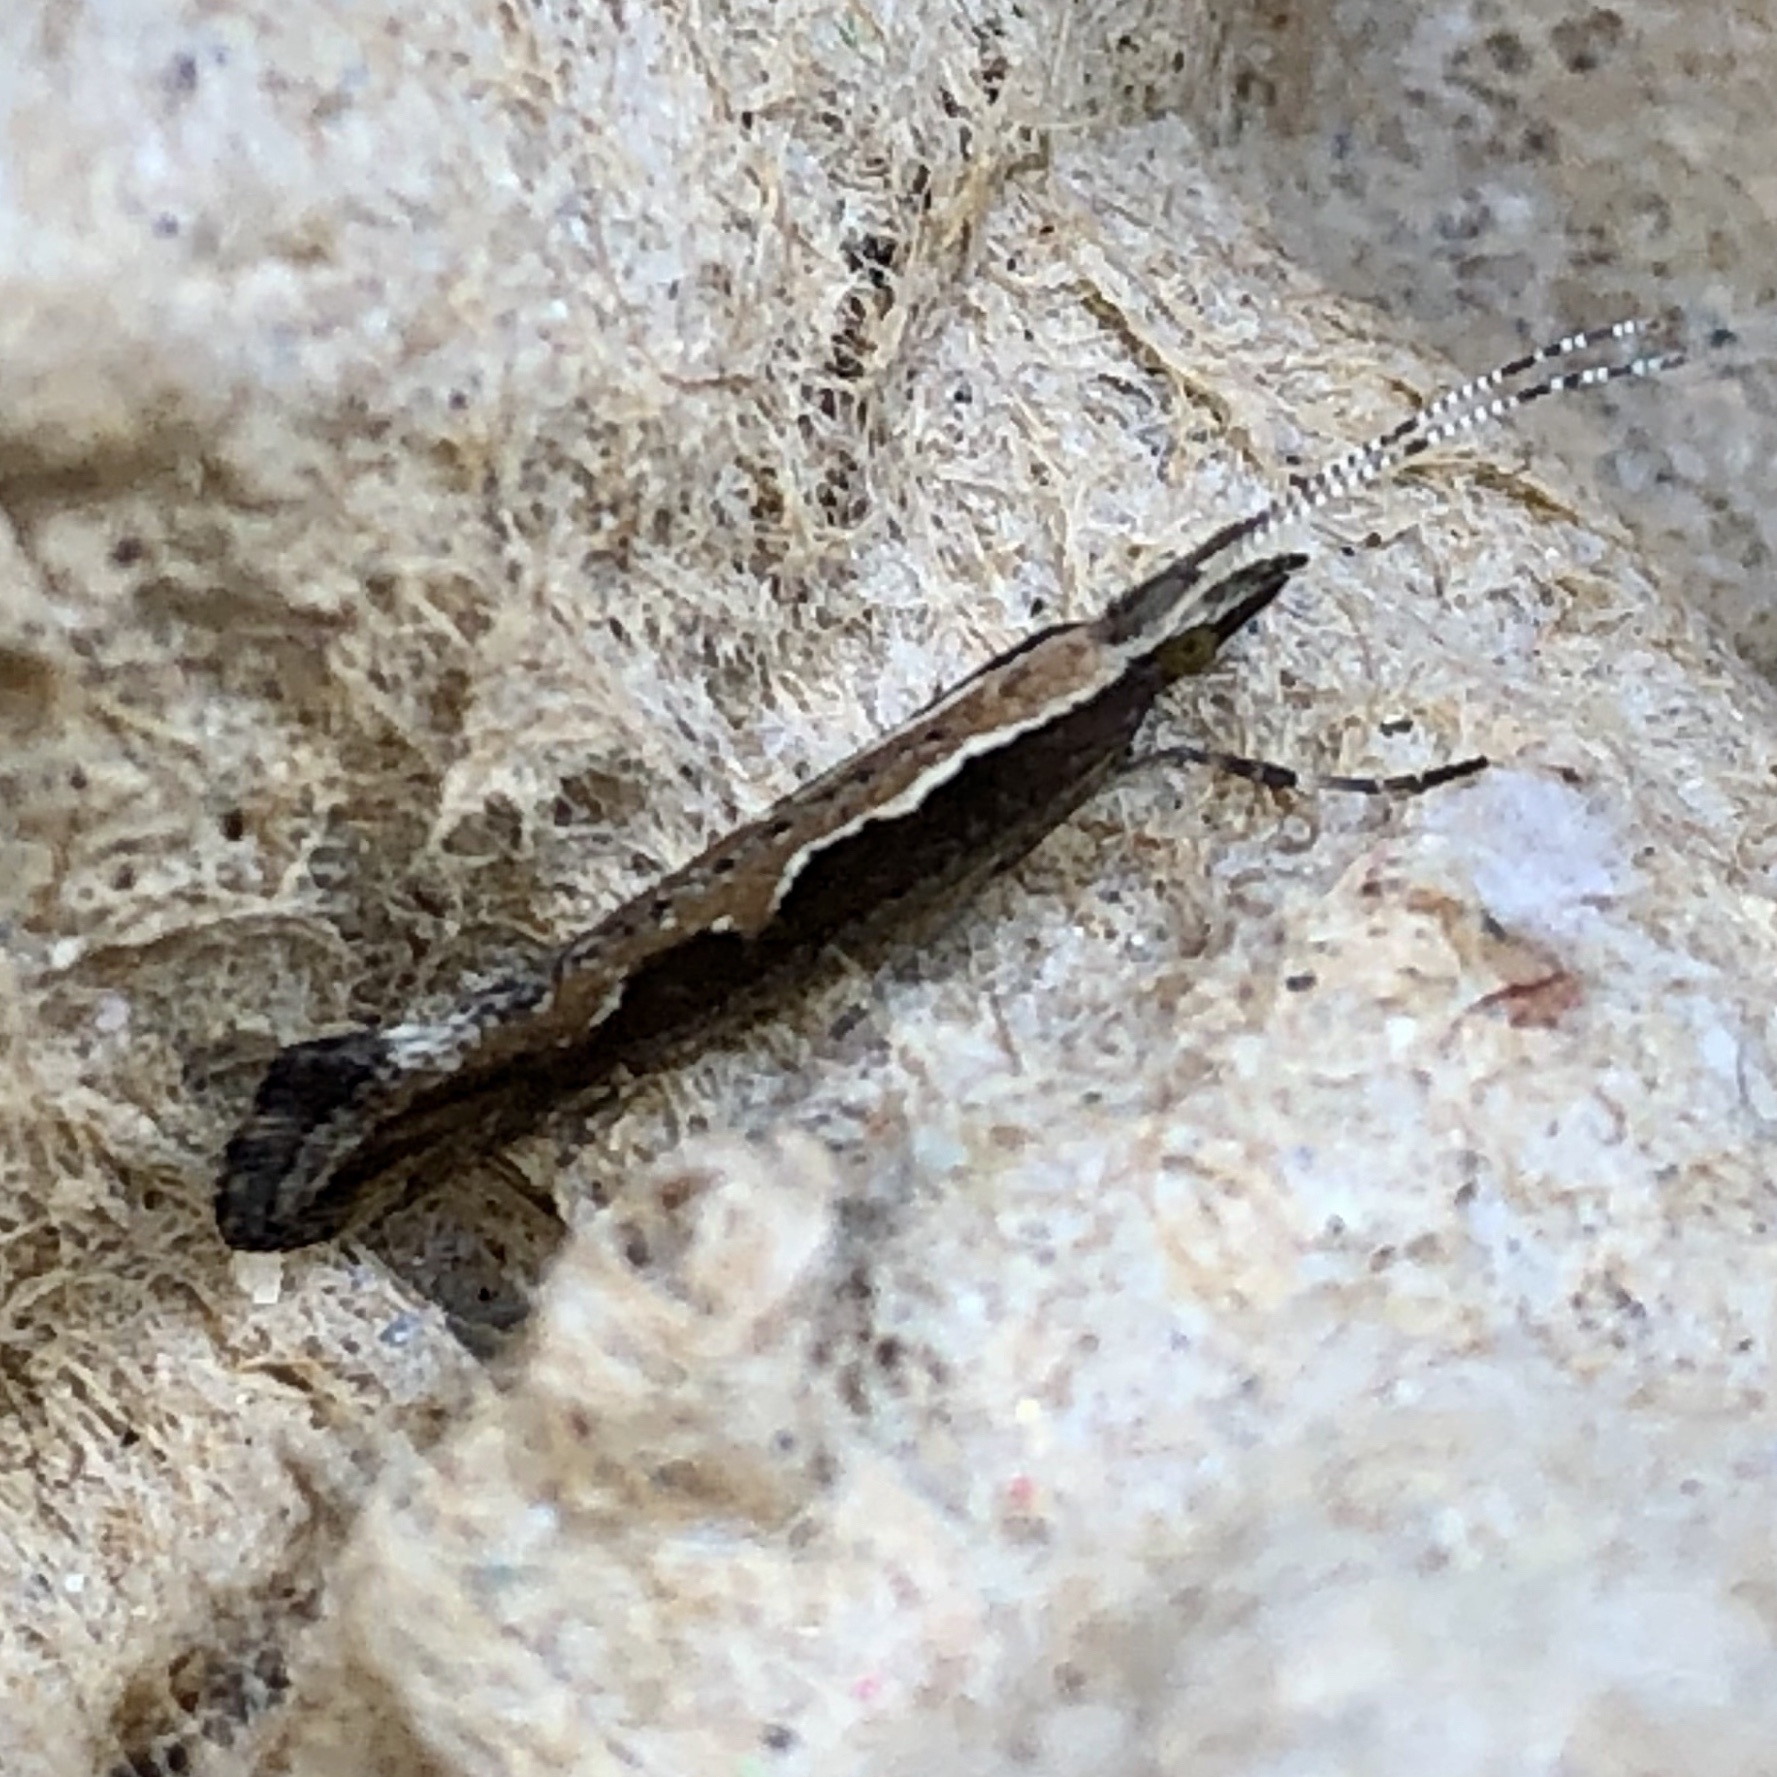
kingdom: Animalia
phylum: Arthropoda
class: Insecta
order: Lepidoptera
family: Plutellidae
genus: Plutella
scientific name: Plutella xylostella
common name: Diamond-back moth
